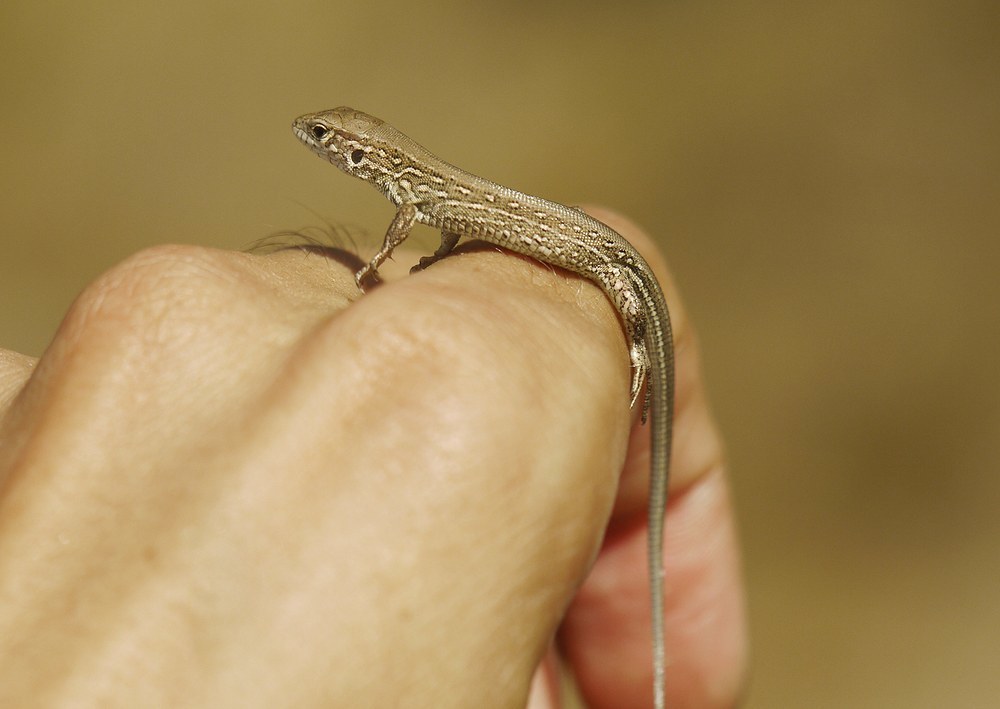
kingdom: Animalia
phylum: Chordata
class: Squamata
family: Lacertidae
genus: Lacerta
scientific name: Lacerta agilis
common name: Sand lizard
